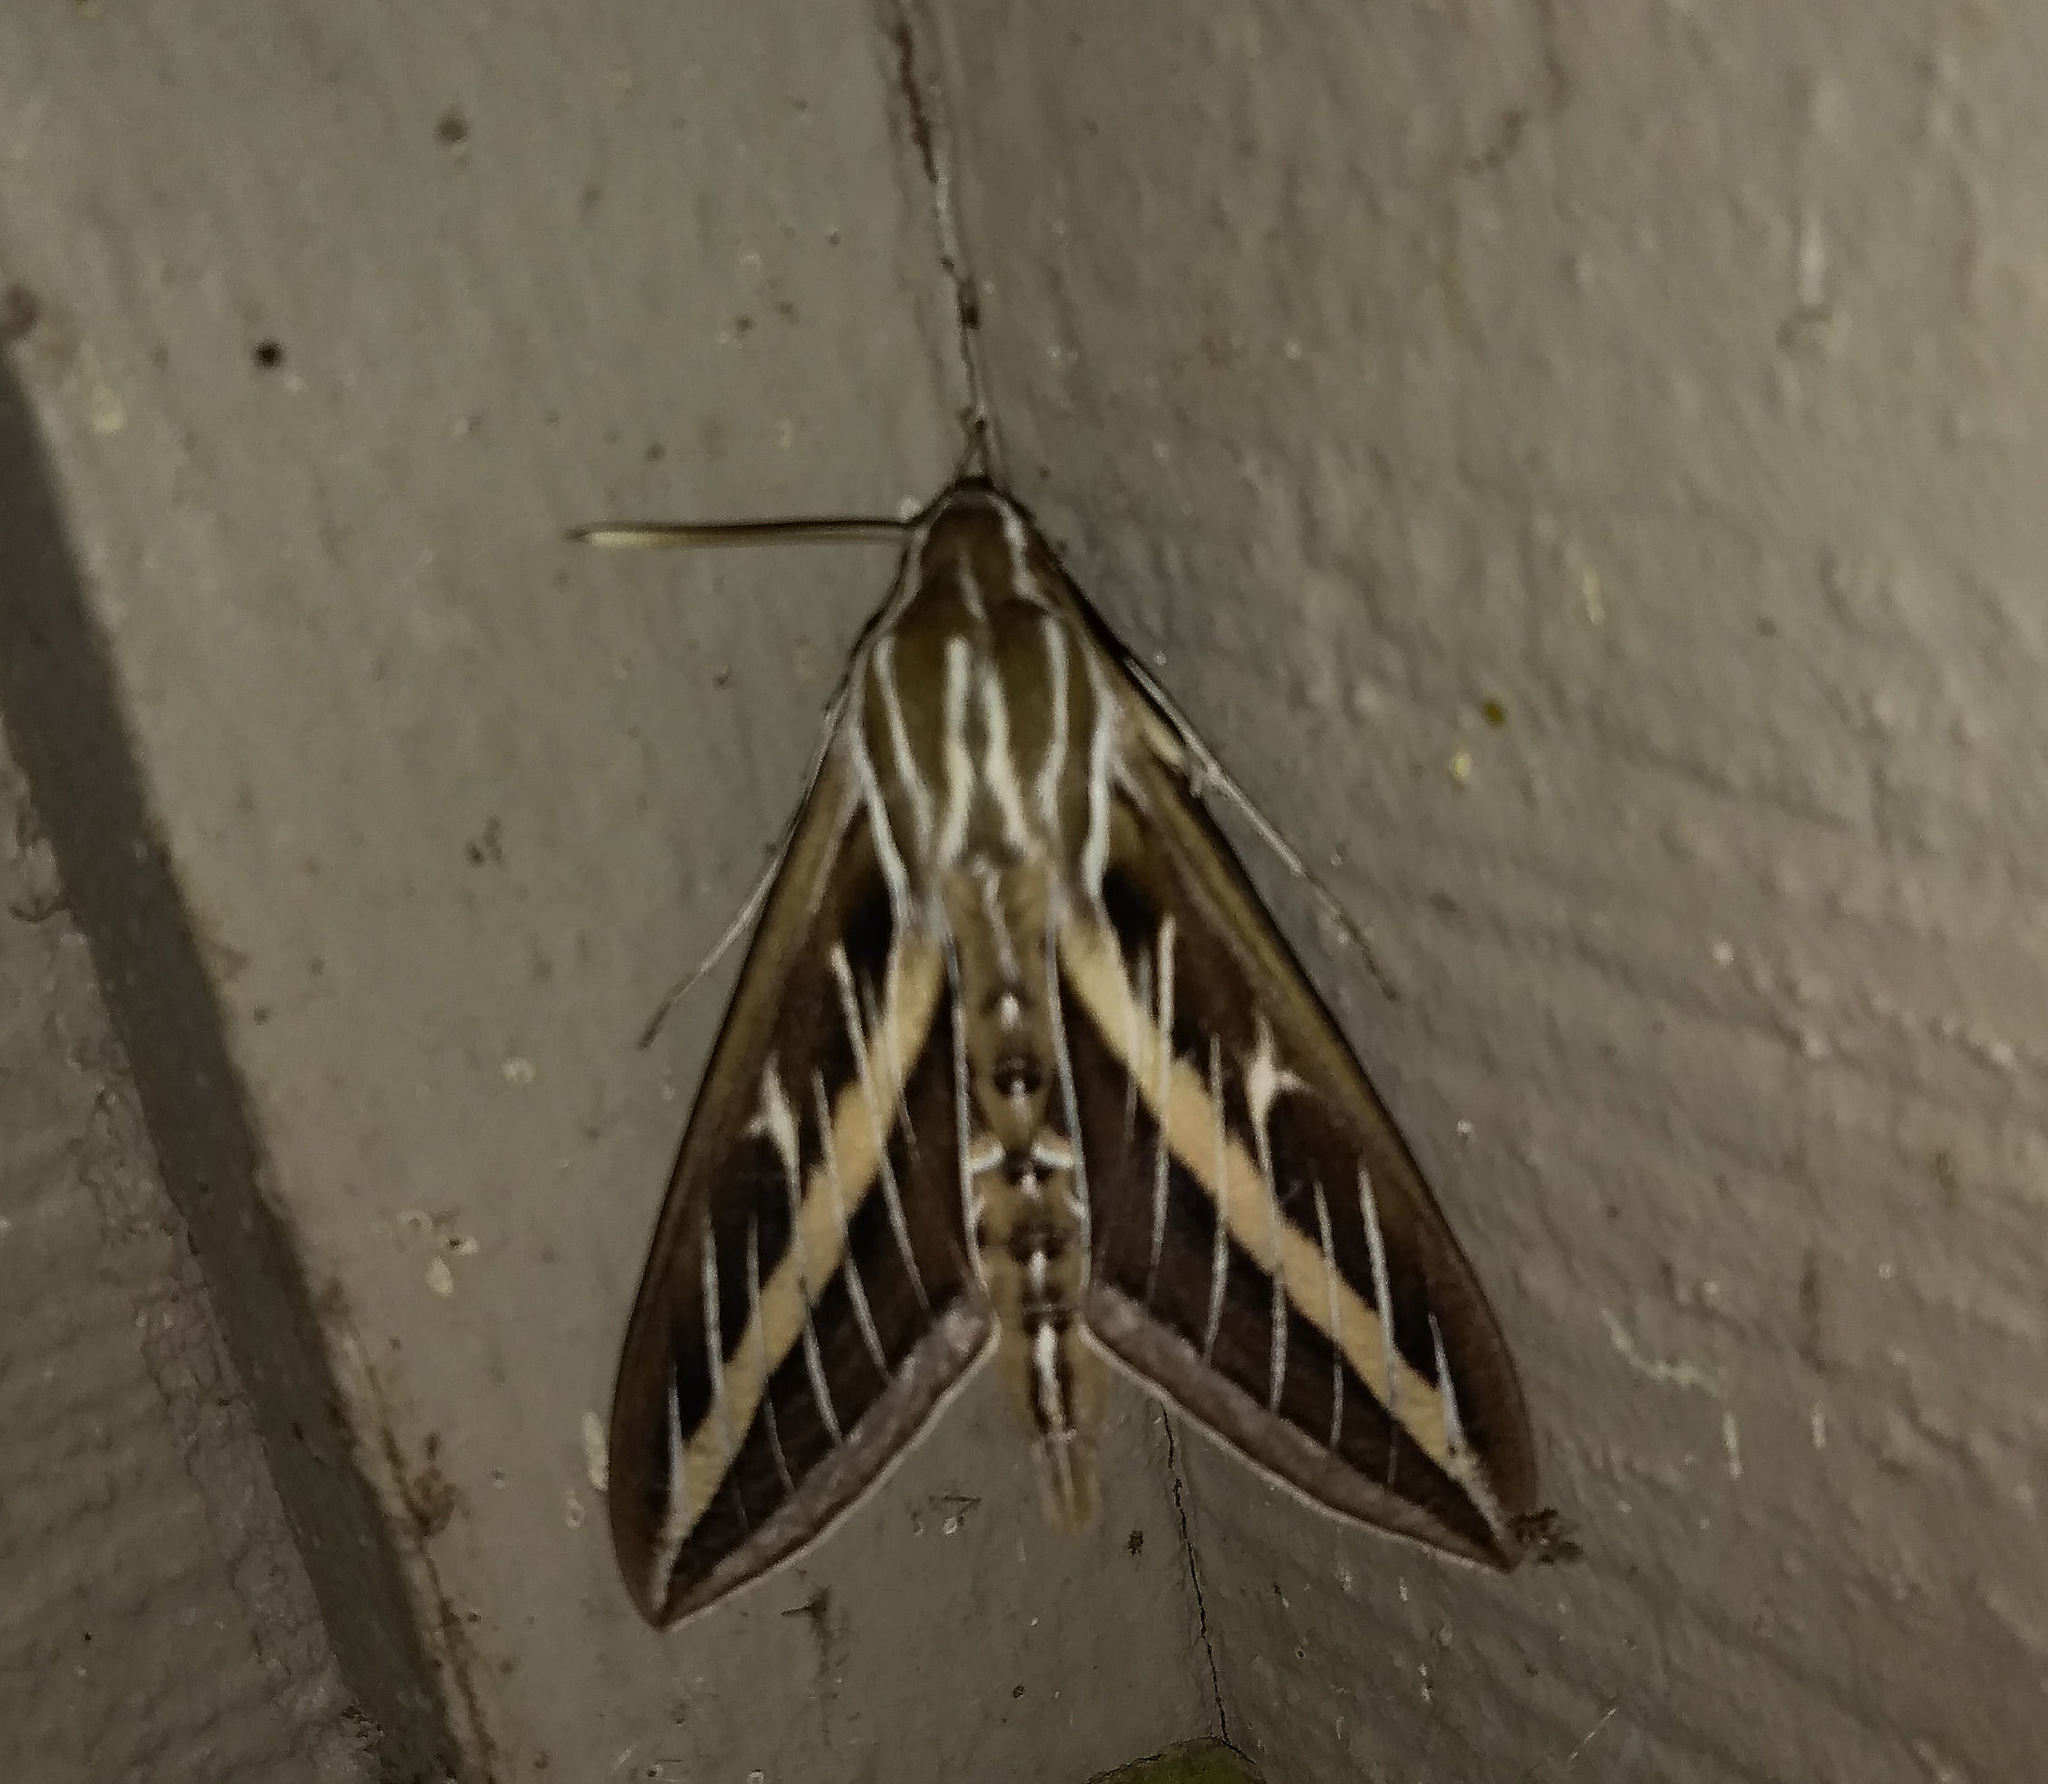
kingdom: Animalia
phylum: Arthropoda
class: Insecta
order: Lepidoptera
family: Sphingidae
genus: Hyles
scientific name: Hyles lineata
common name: White-lined sphinx
